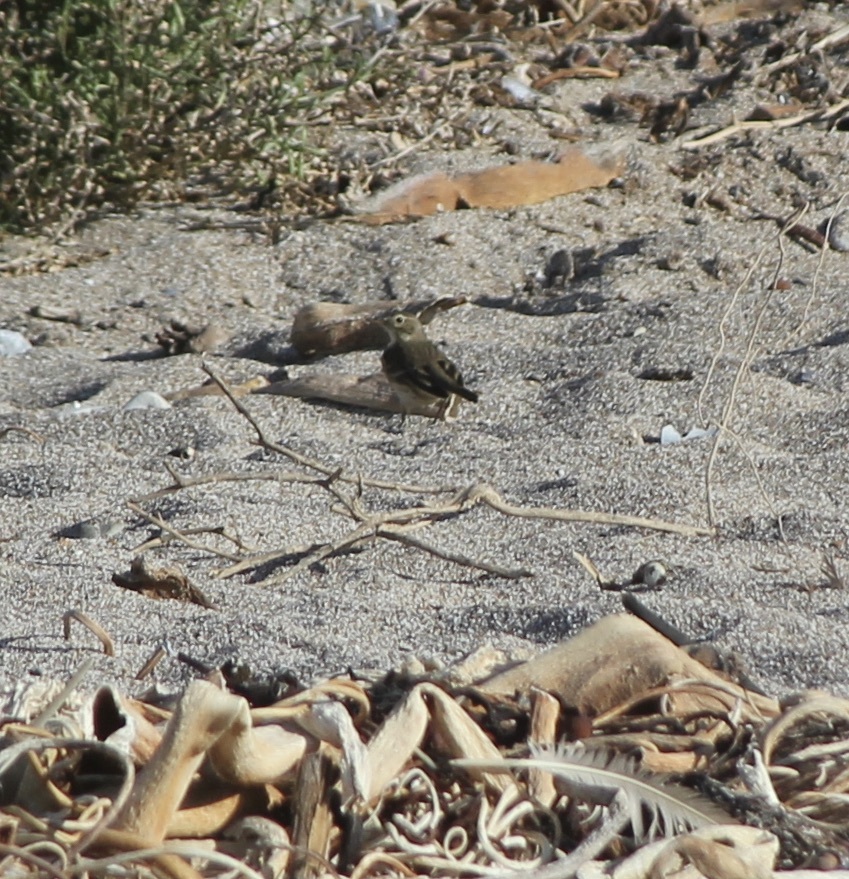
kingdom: Animalia
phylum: Chordata
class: Aves
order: Passeriformes
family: Motacillidae
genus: Anthus
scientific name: Anthus rubescens
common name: Buff-bellied pipit
